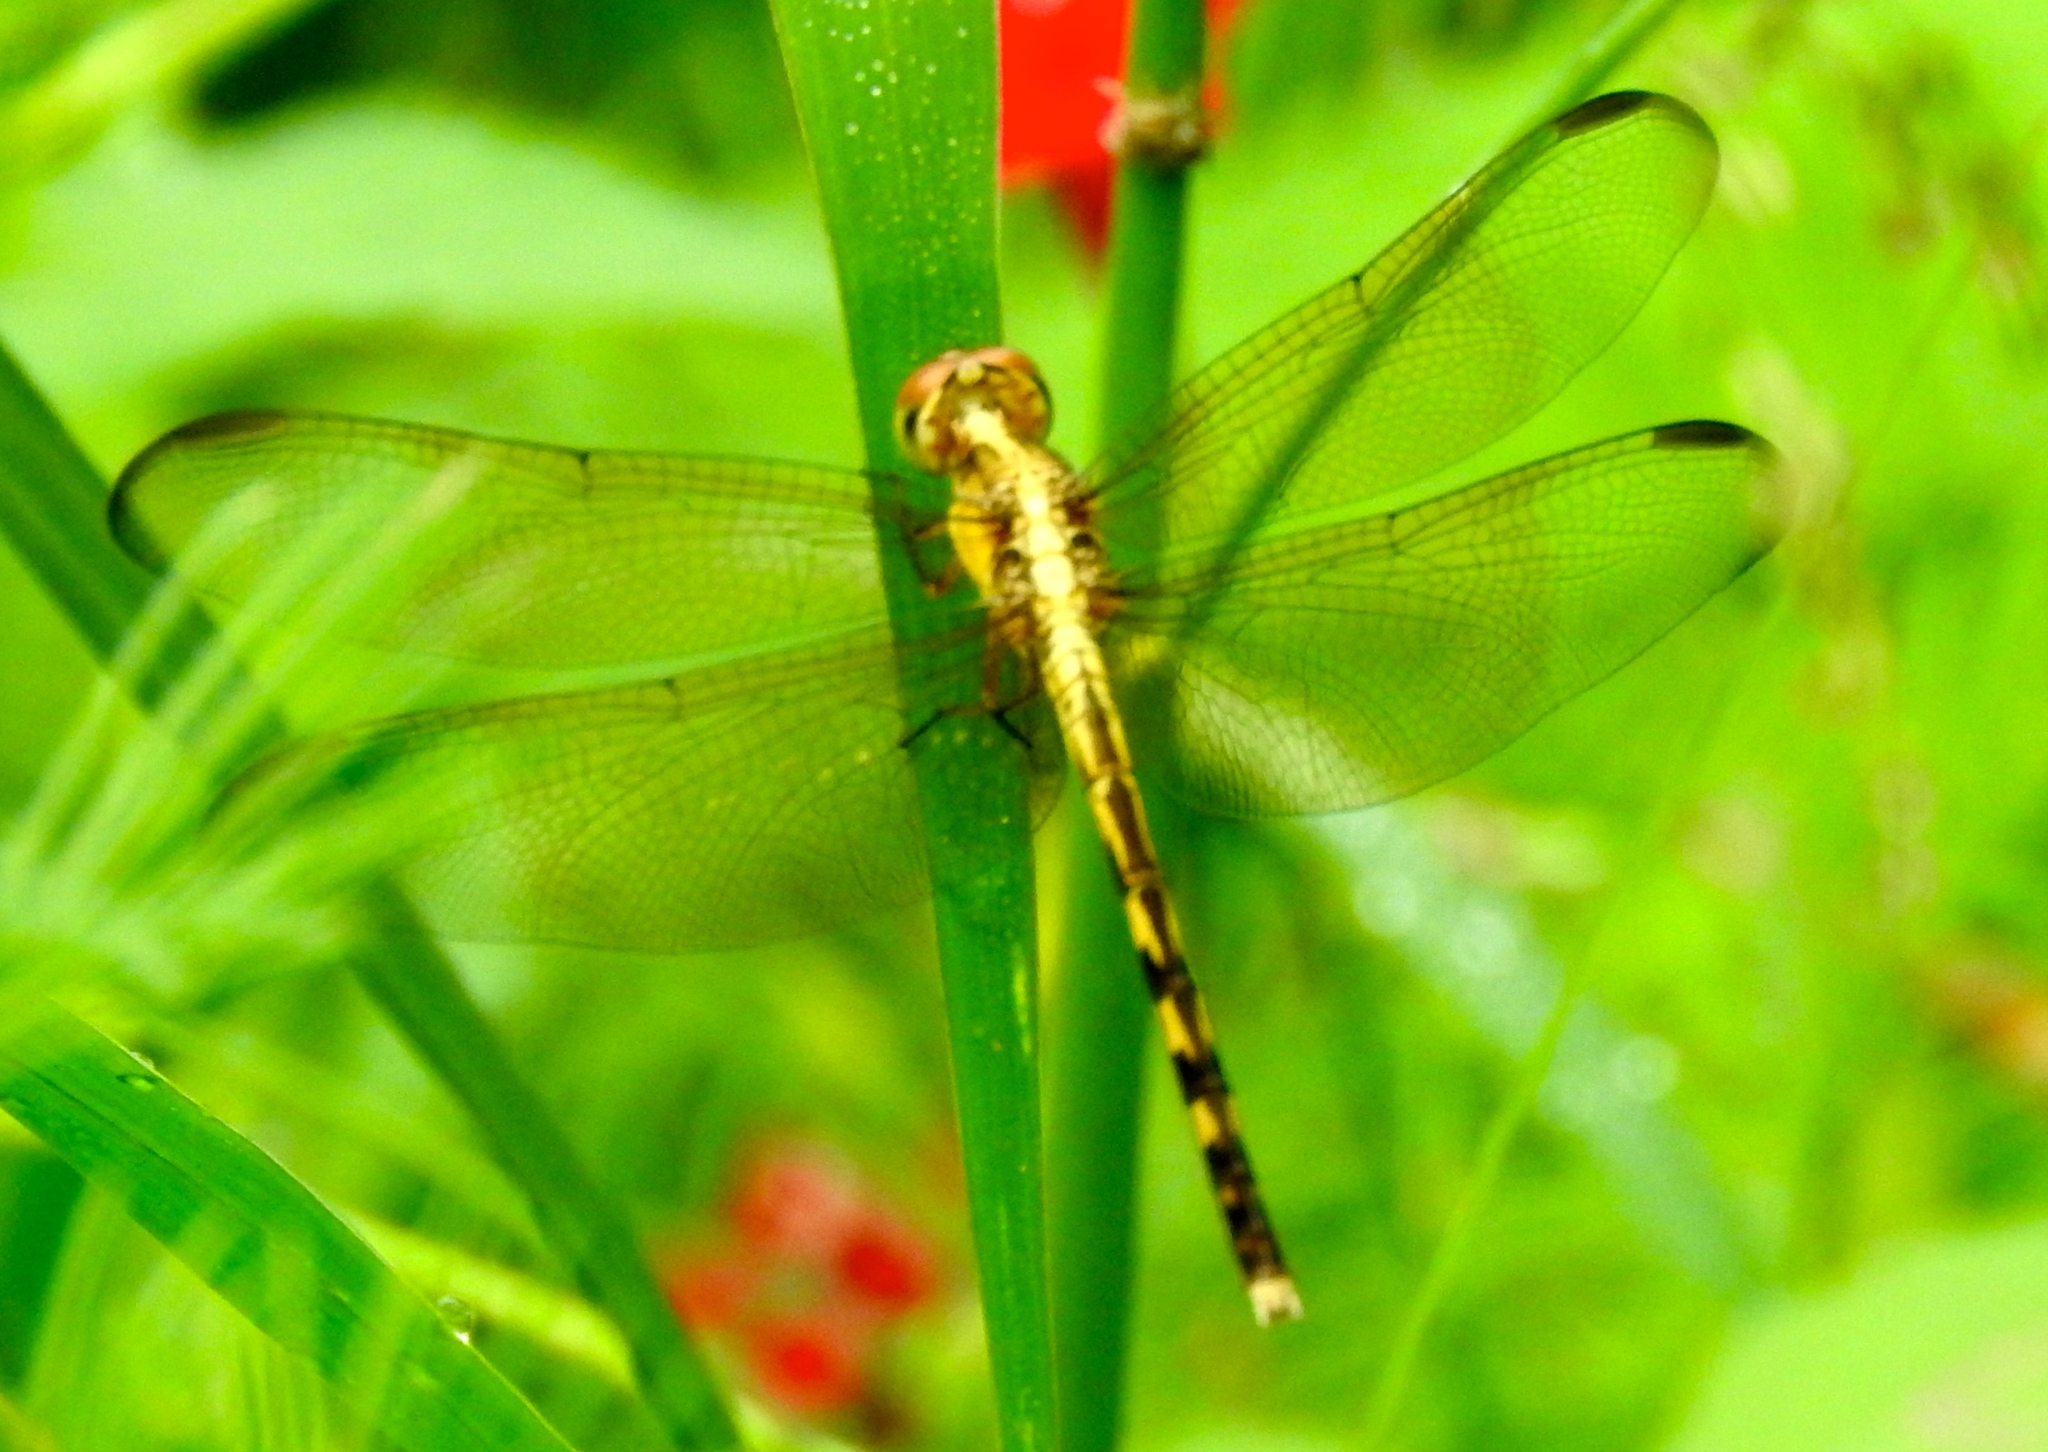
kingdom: Animalia
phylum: Arthropoda
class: Insecta
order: Odonata
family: Libellulidae
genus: Erythrodiplax
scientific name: Erythrodiplax funerea
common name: Black-winged dragonlet
